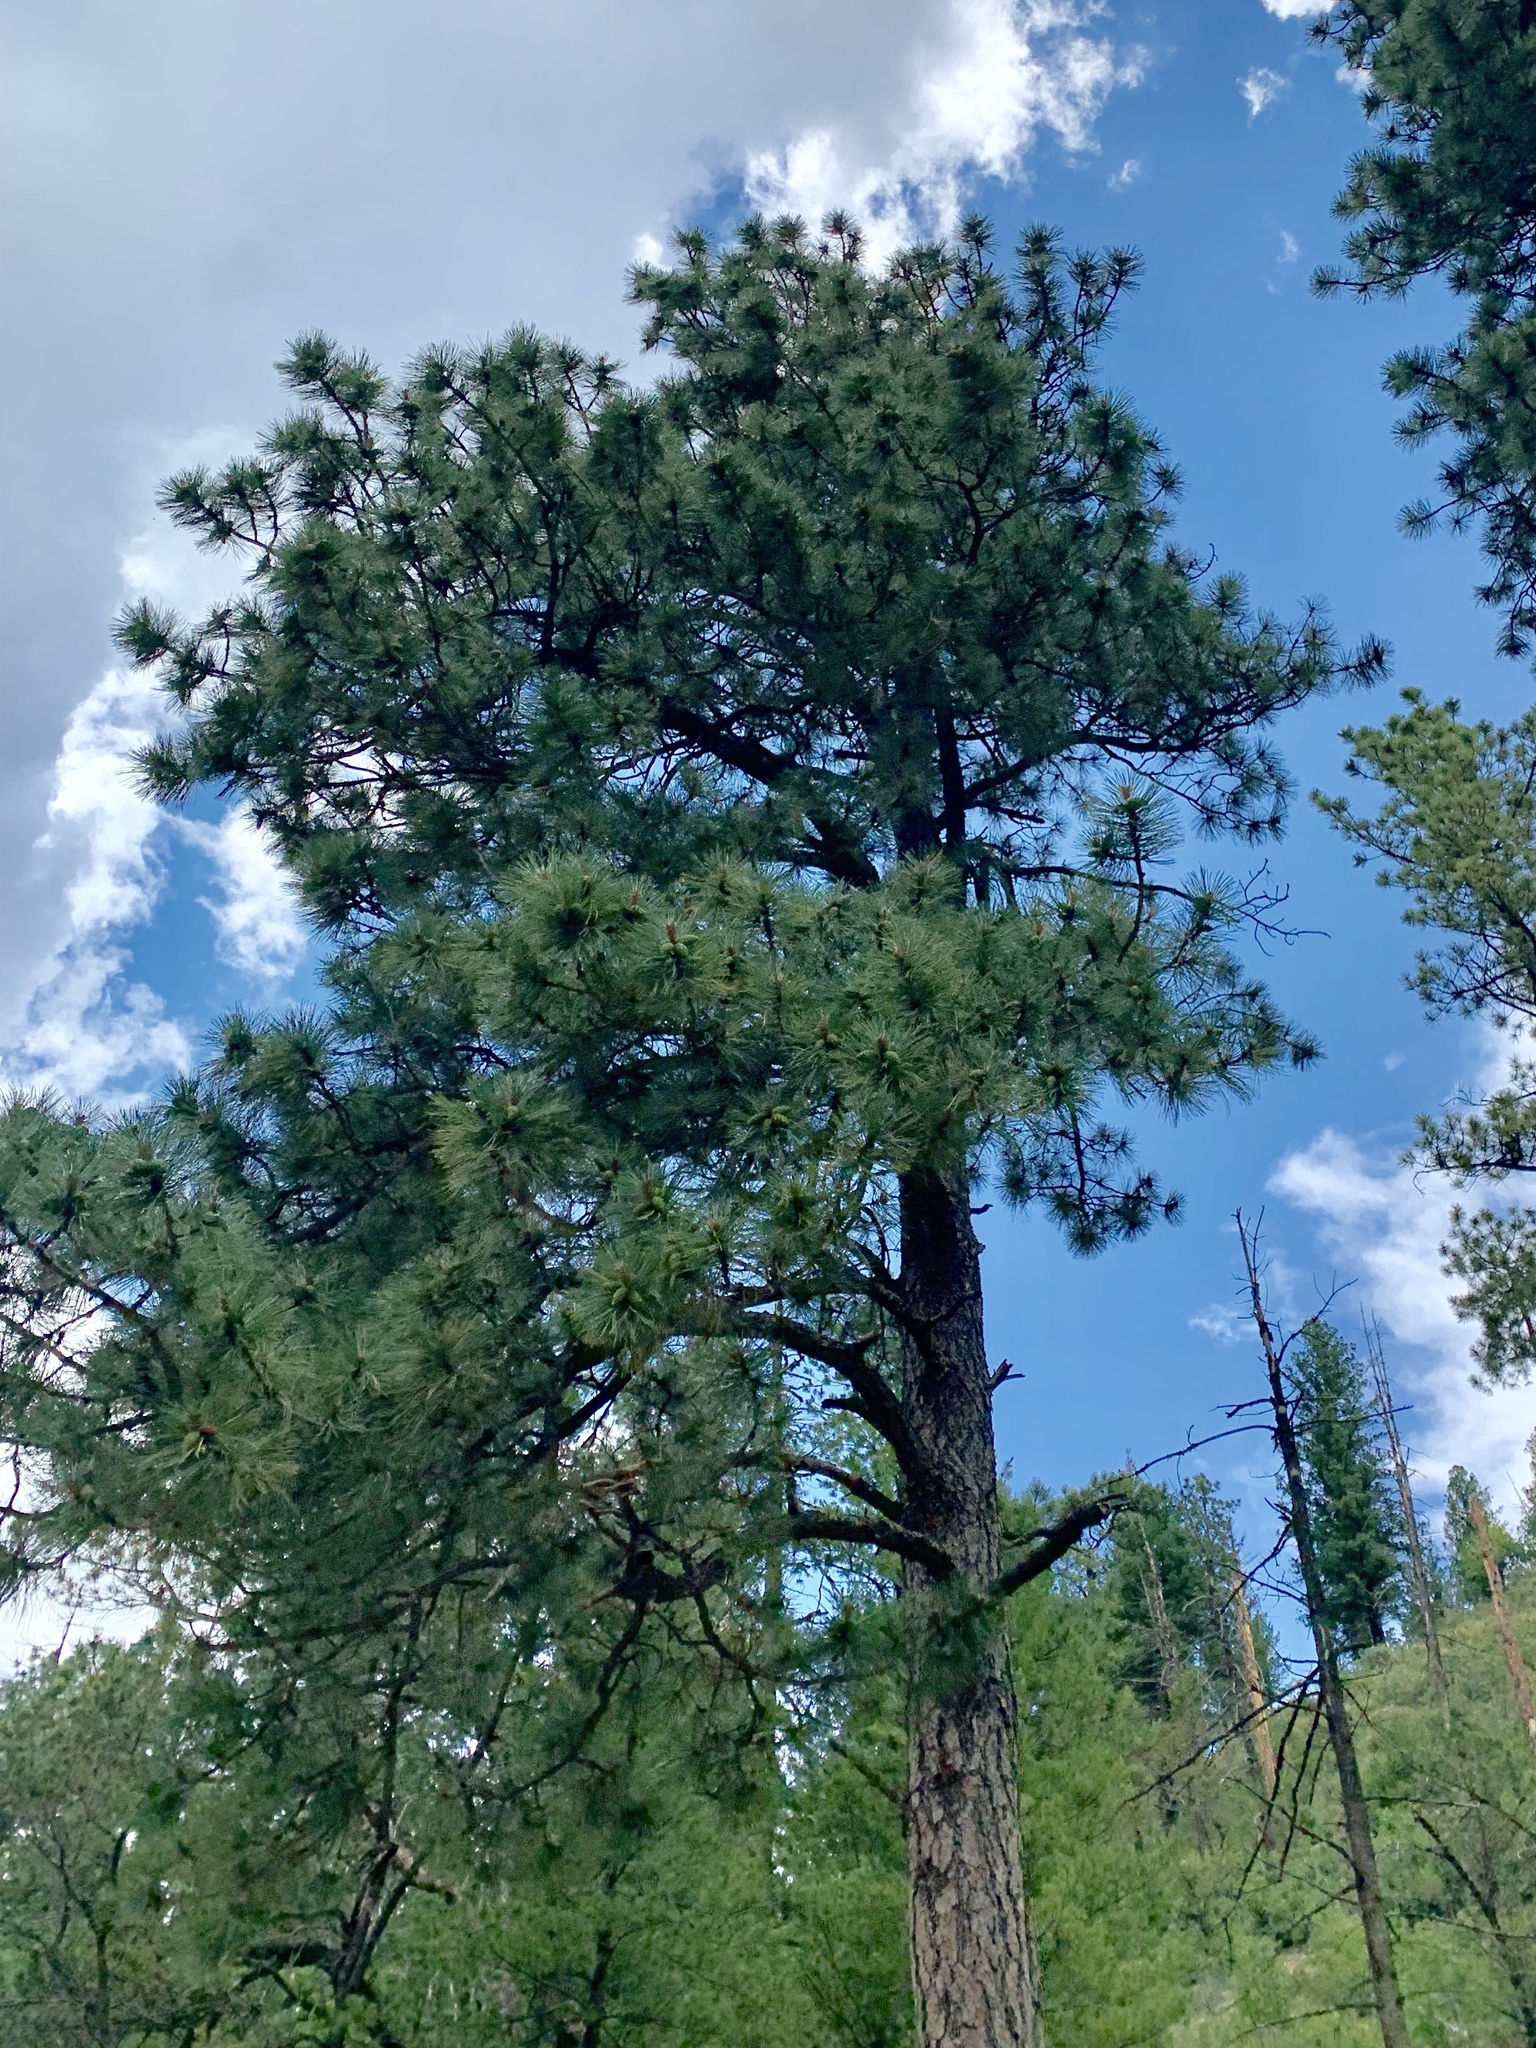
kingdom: Plantae
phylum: Tracheophyta
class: Pinopsida
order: Pinales
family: Pinaceae
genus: Pinus
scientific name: Pinus ponderosa
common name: Western yellow-pine
